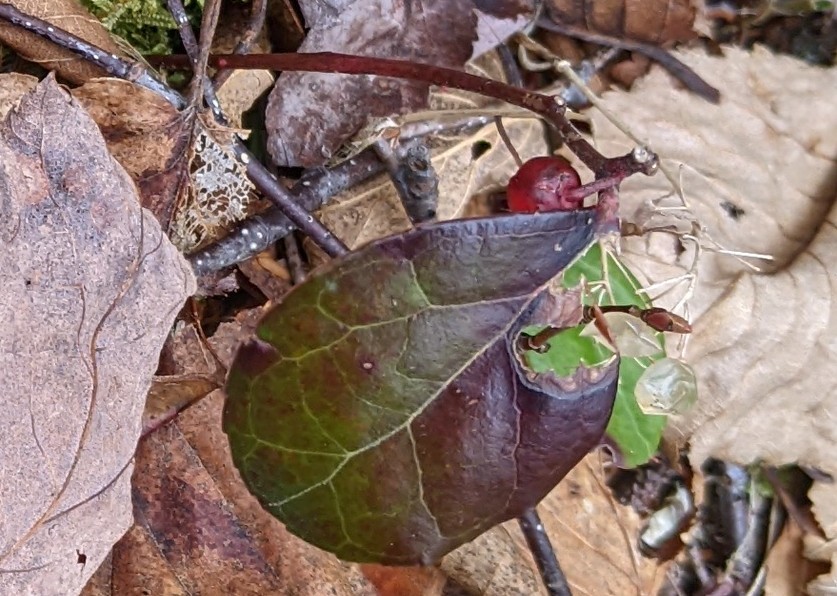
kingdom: Plantae
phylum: Tracheophyta
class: Magnoliopsida
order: Ericales
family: Ericaceae
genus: Gaultheria
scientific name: Gaultheria procumbens
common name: Checkerberry
